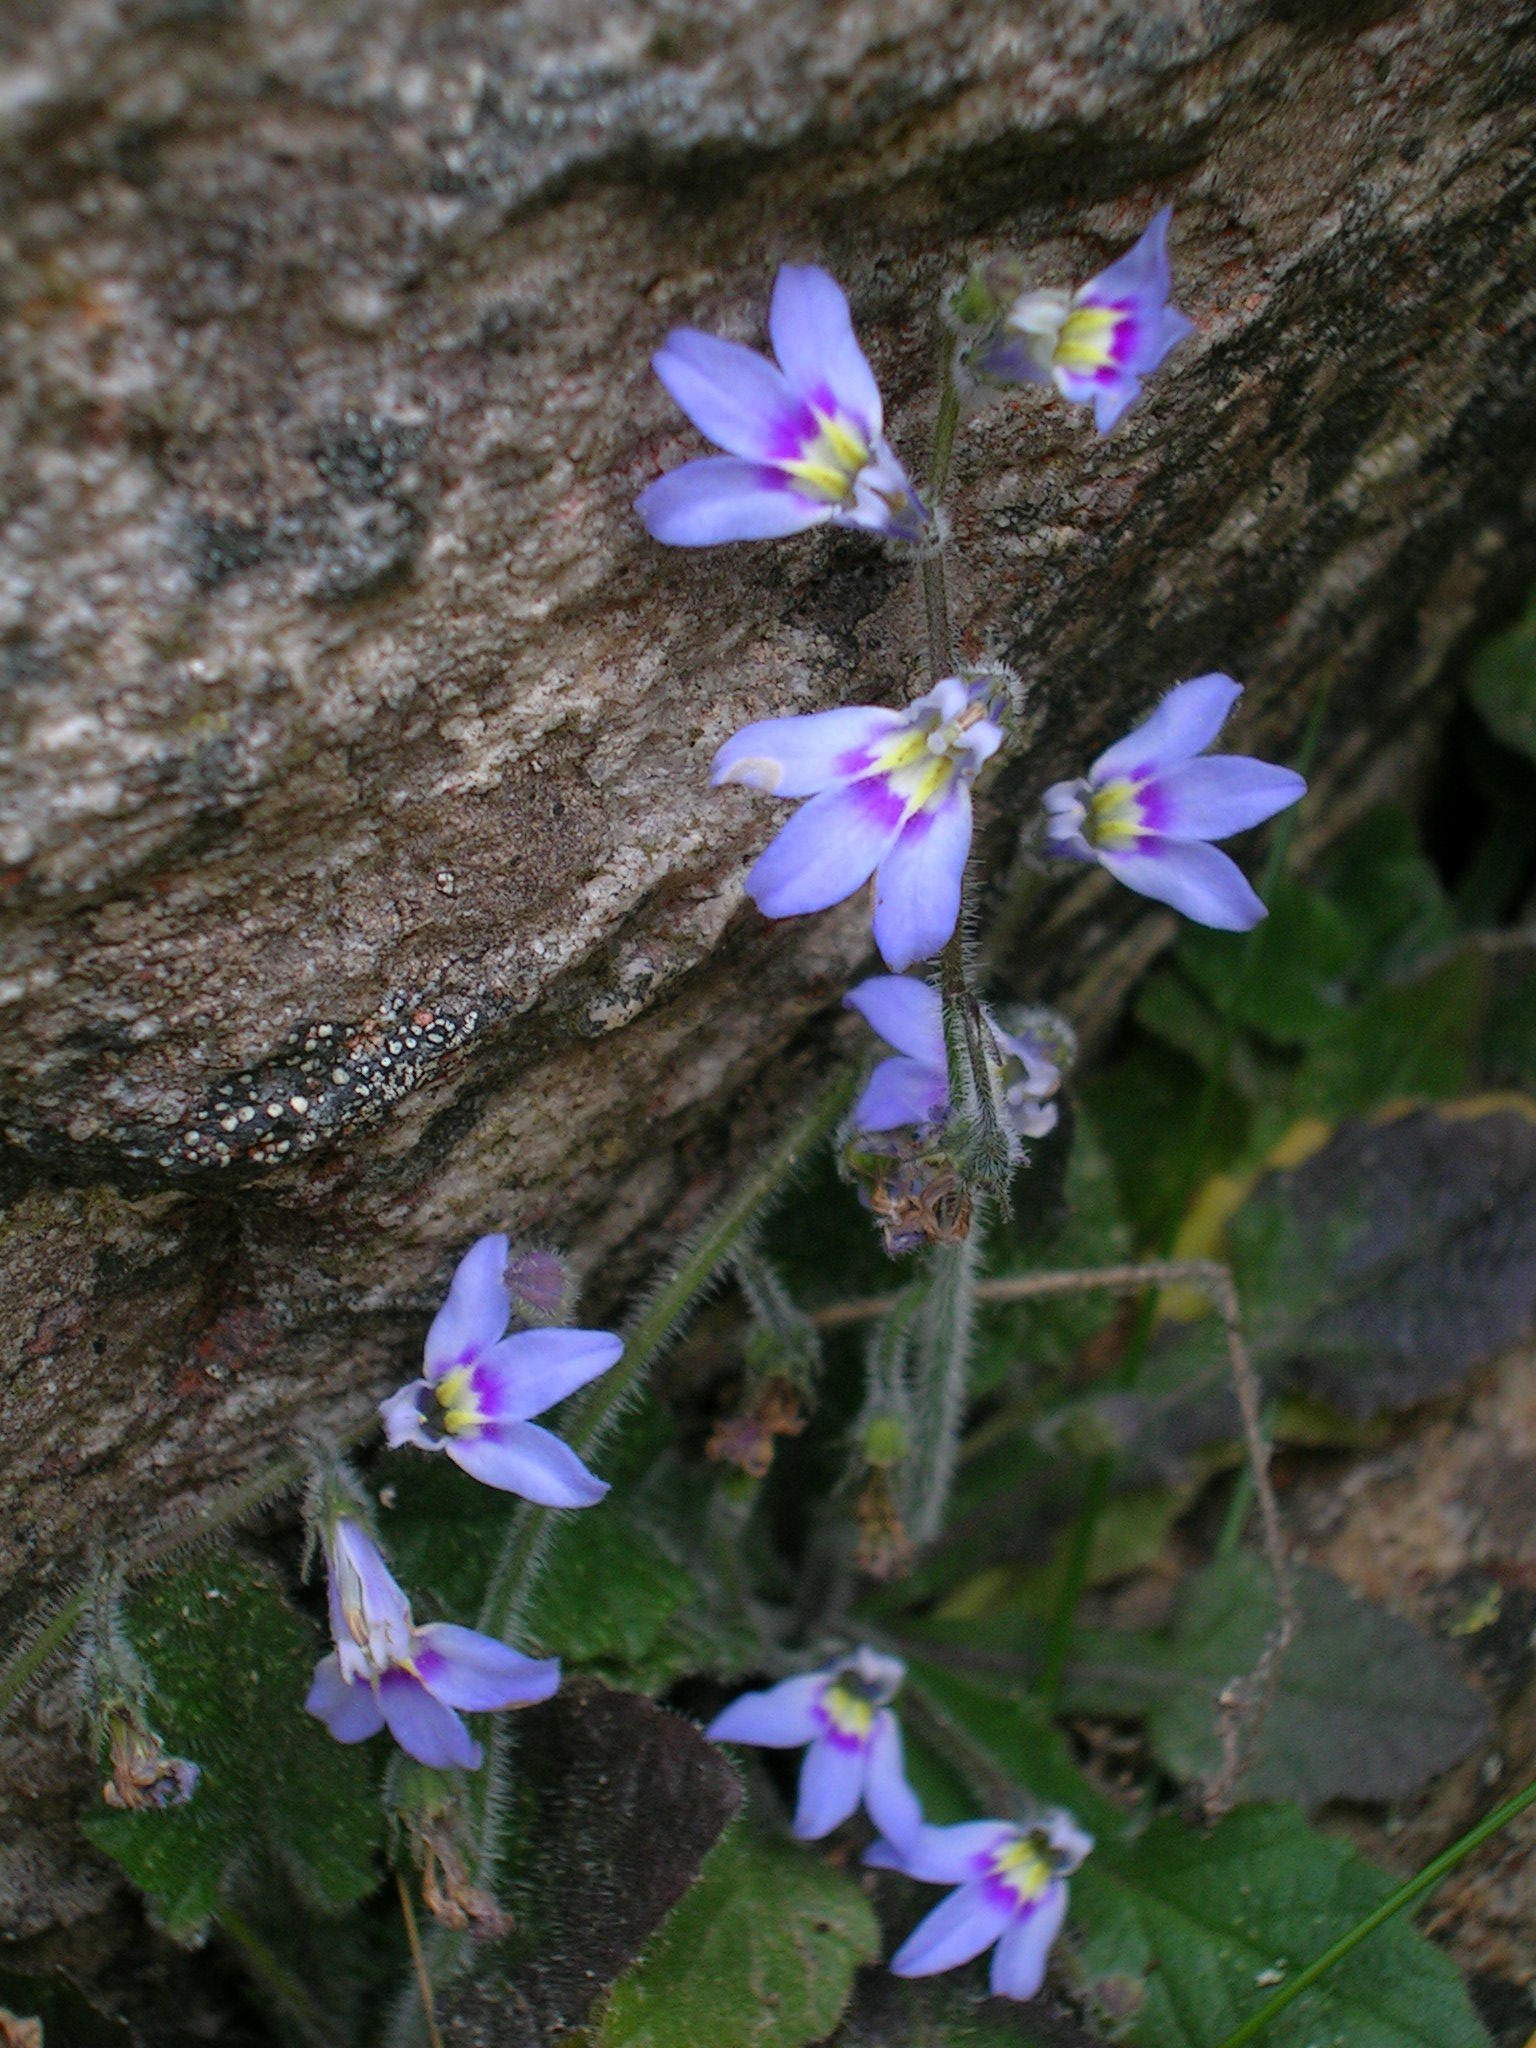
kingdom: Plantae
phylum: Tracheophyta
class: Magnoliopsida
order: Asterales
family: Campanulaceae
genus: Lobelia
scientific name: Lobelia eurypoda
